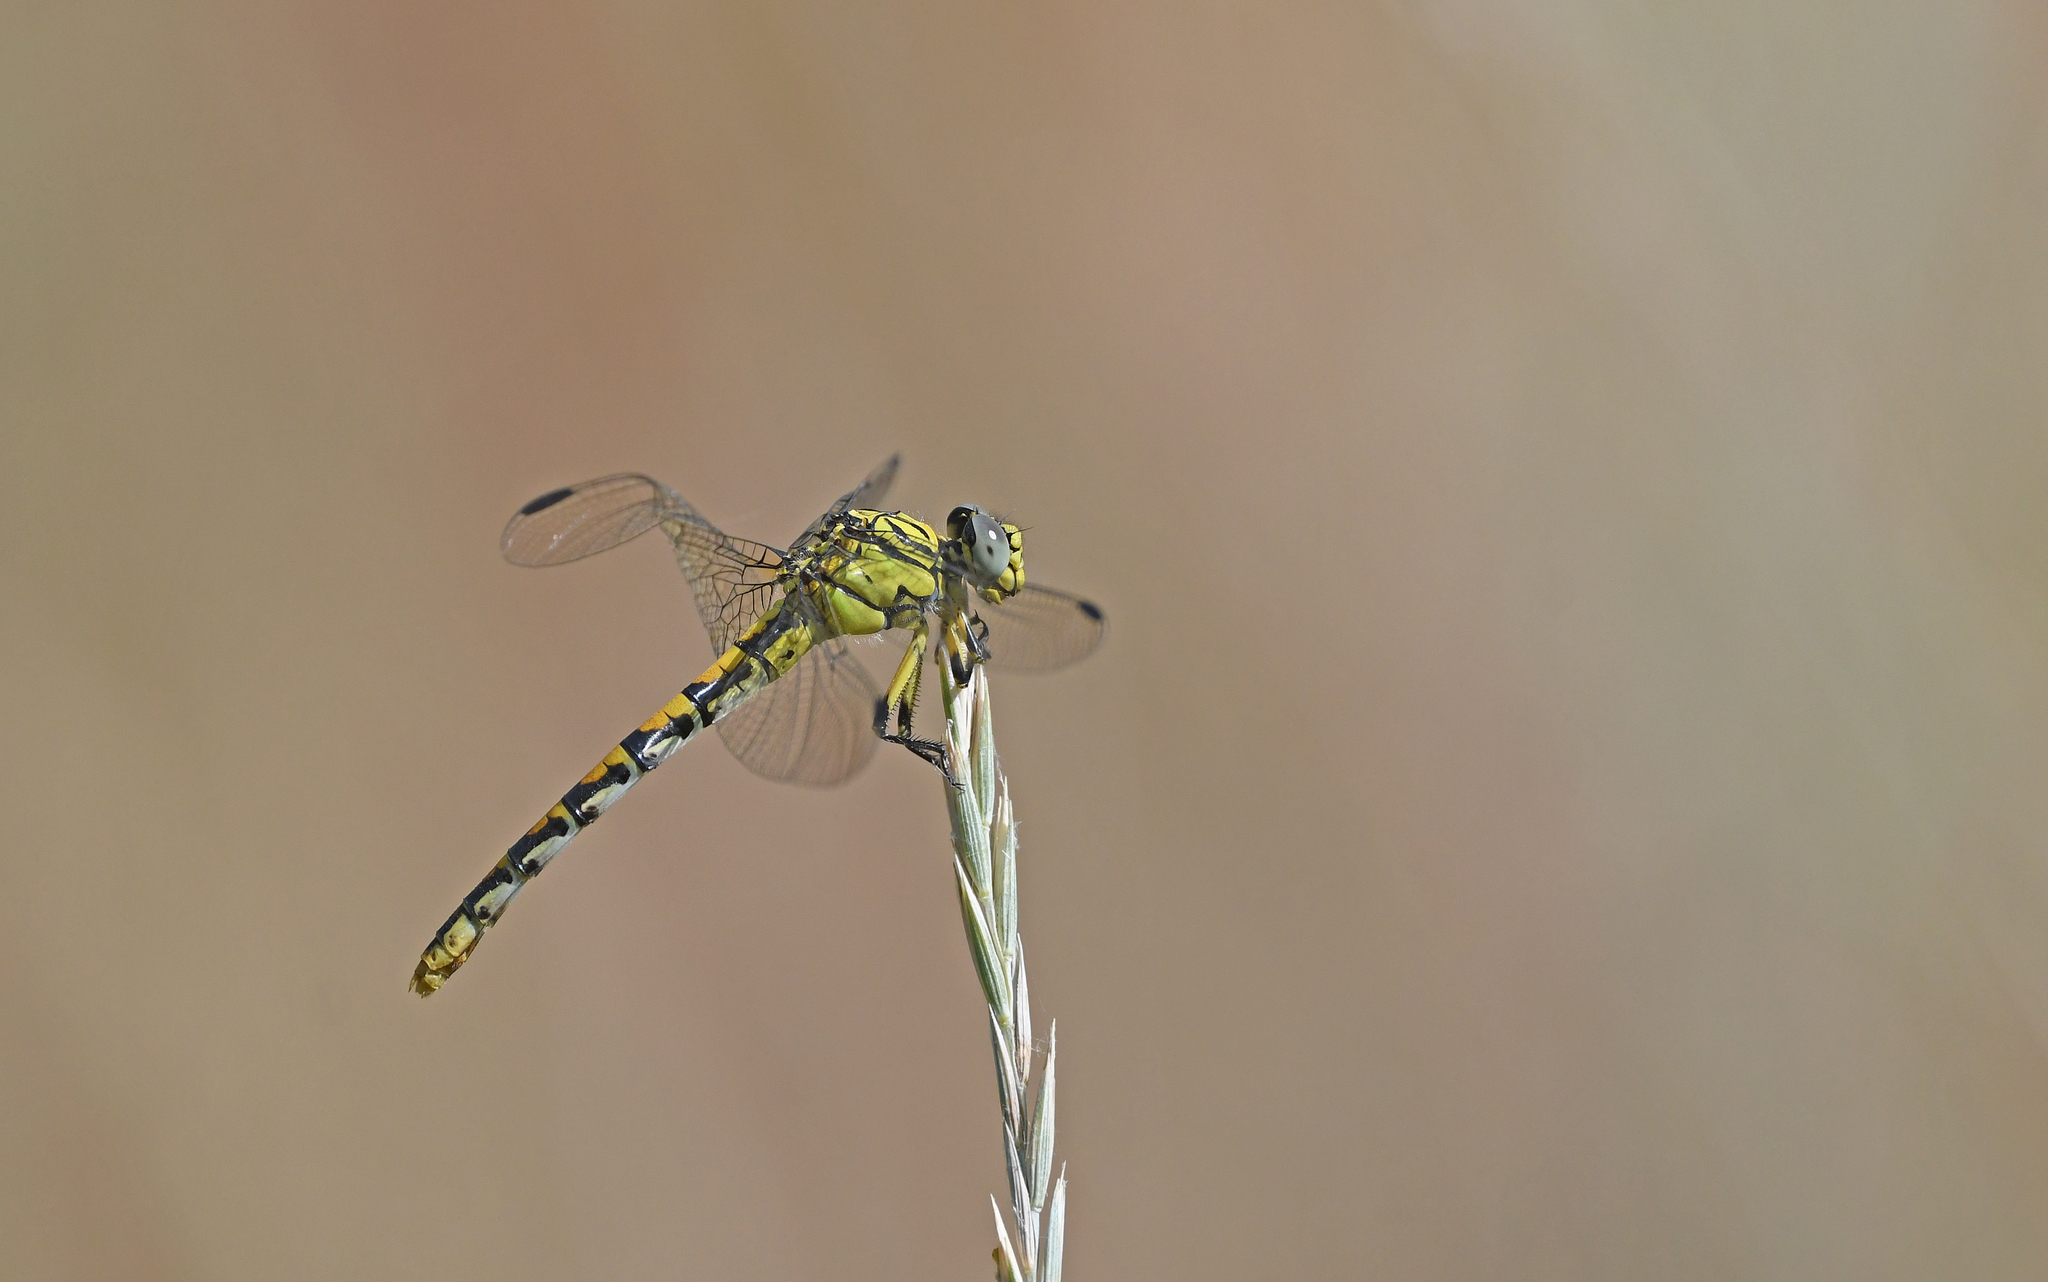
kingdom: Animalia
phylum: Arthropoda
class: Insecta
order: Odonata
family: Gomphidae
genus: Onychogomphus
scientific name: Onychogomphus forcipatus
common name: Small pincertail
